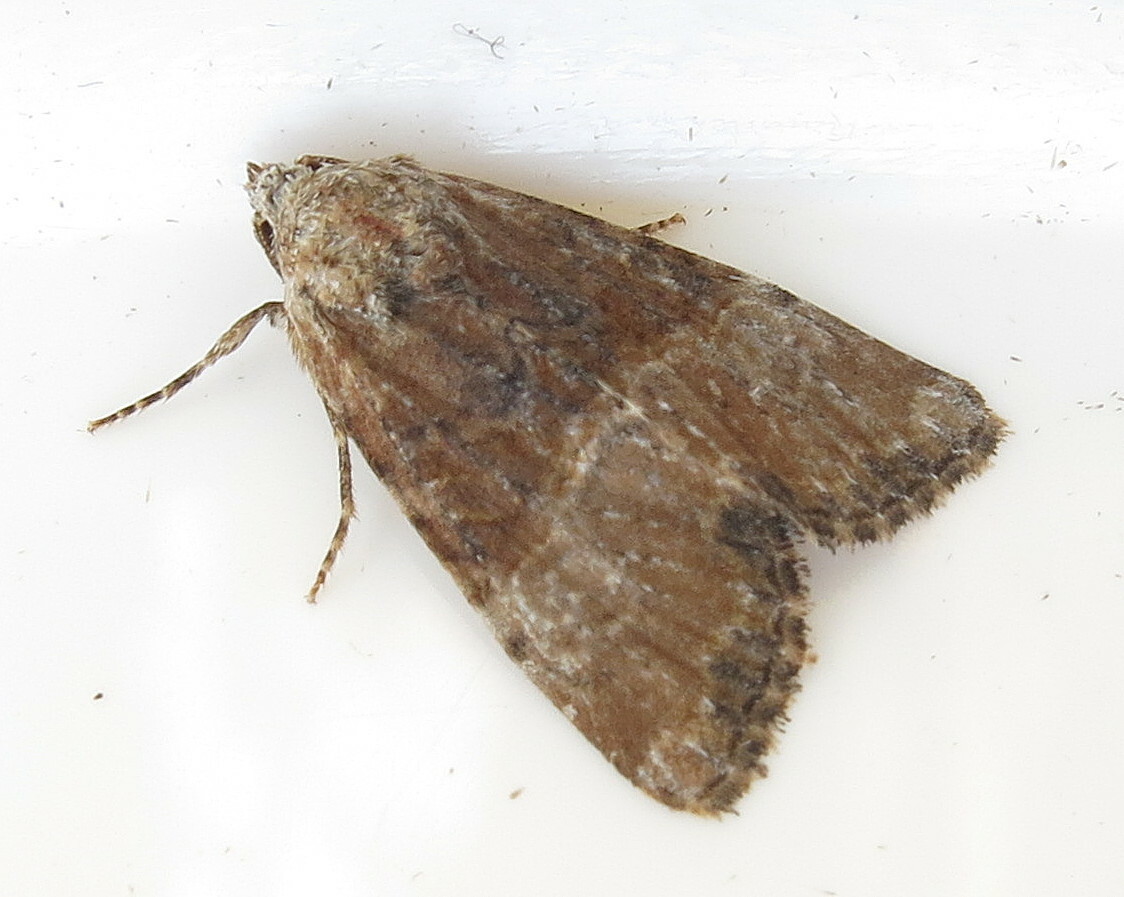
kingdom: Animalia
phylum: Arthropoda
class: Insecta
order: Lepidoptera
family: Noctuidae
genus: Mesoligia
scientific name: Mesoligia furuncula
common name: Cloaked minor
